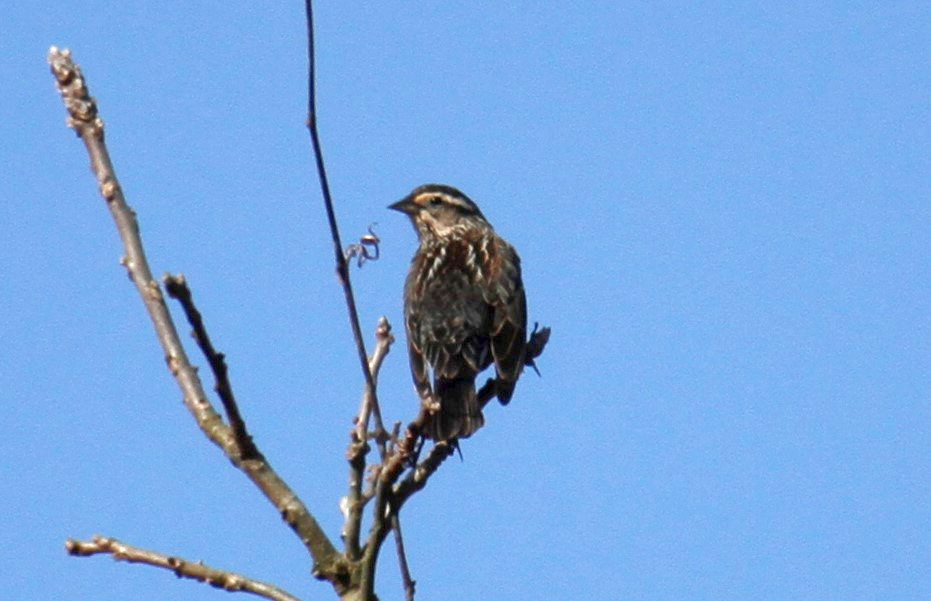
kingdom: Animalia
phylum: Chordata
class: Aves
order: Passeriformes
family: Icteridae
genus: Agelaius
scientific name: Agelaius phoeniceus
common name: Red-winged blackbird
